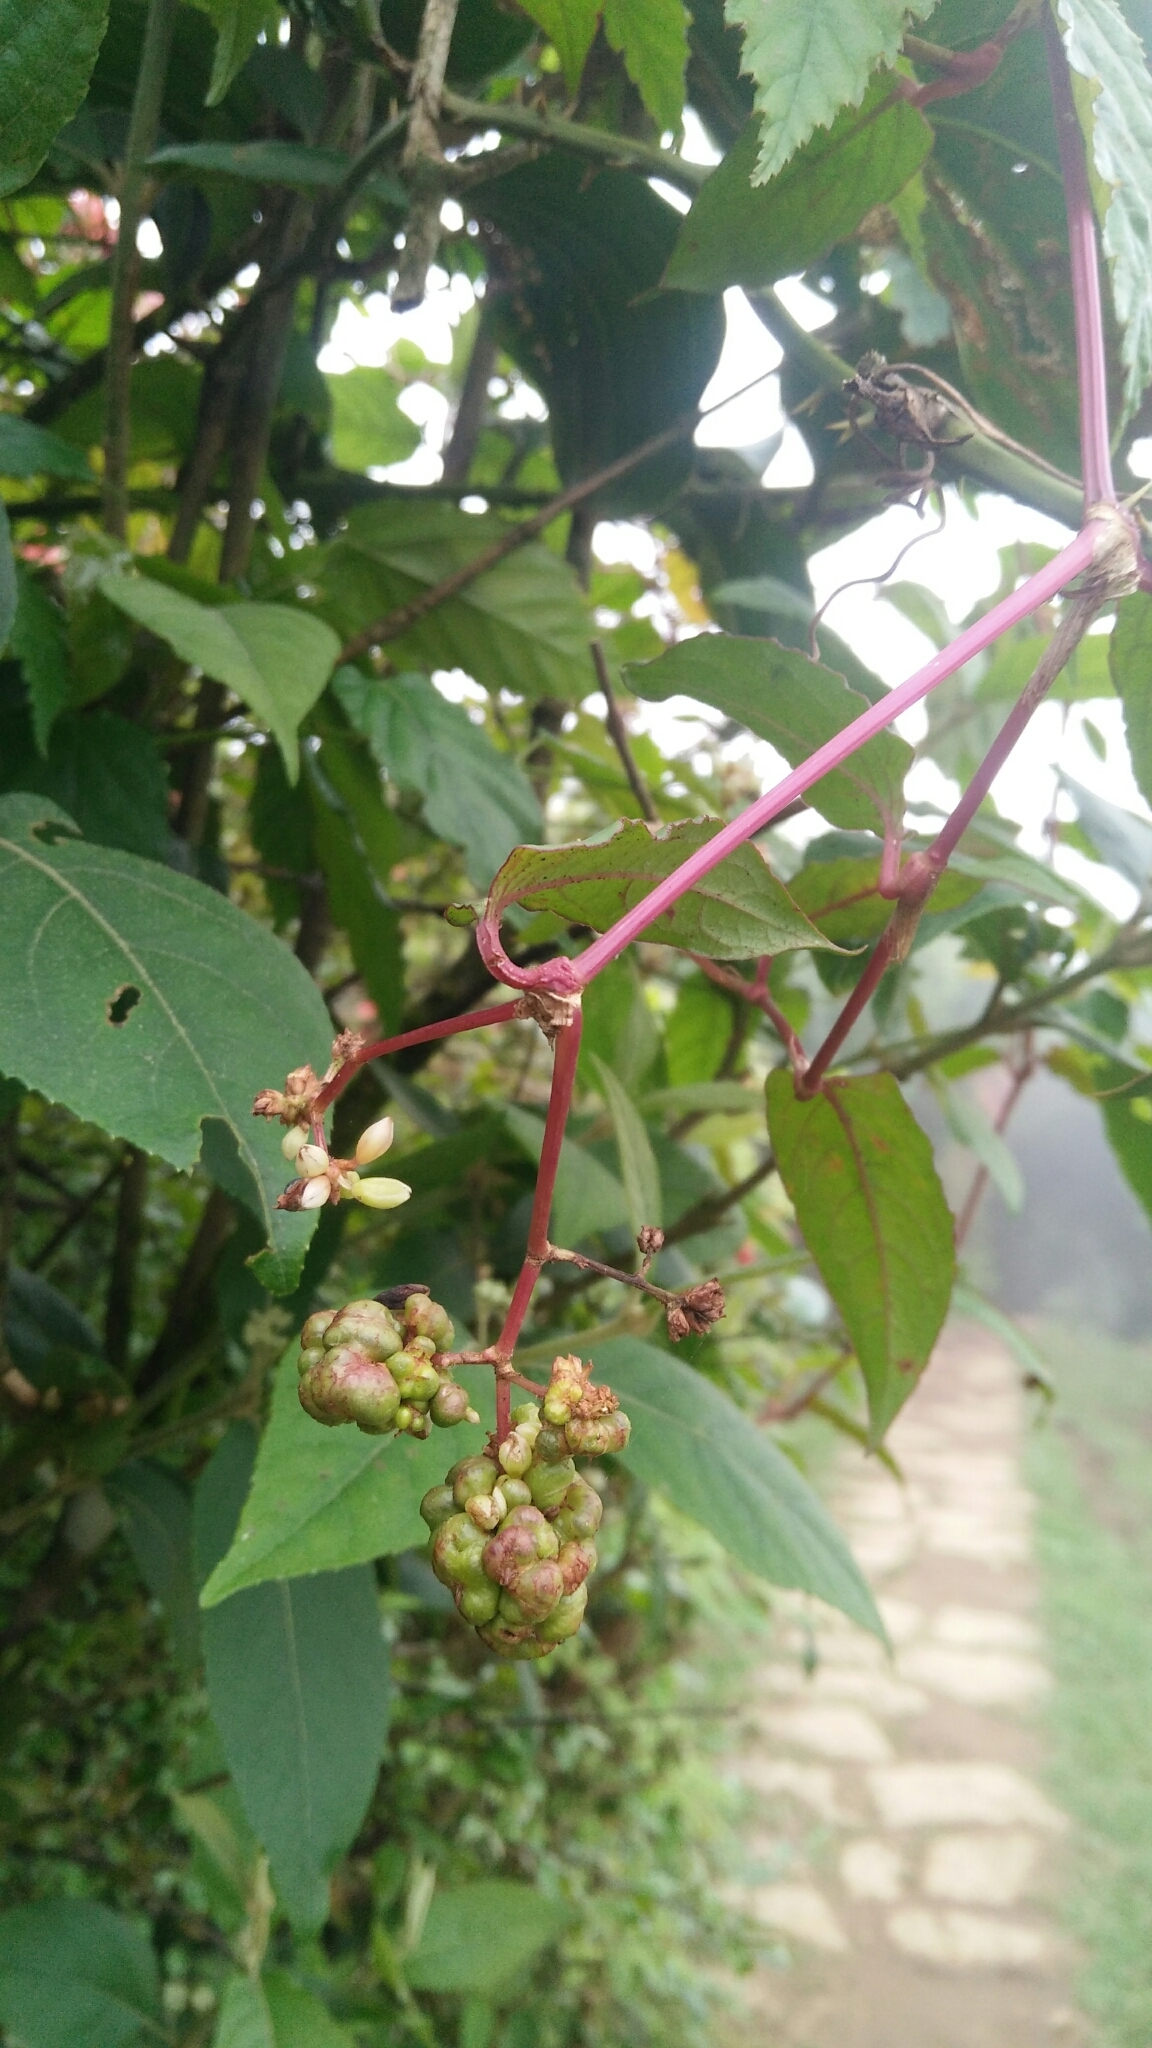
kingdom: Plantae
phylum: Tracheophyta
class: Magnoliopsida
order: Caryophyllales
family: Polygonaceae
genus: Persicaria
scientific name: Persicaria chinensis
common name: Chinese knotweed
